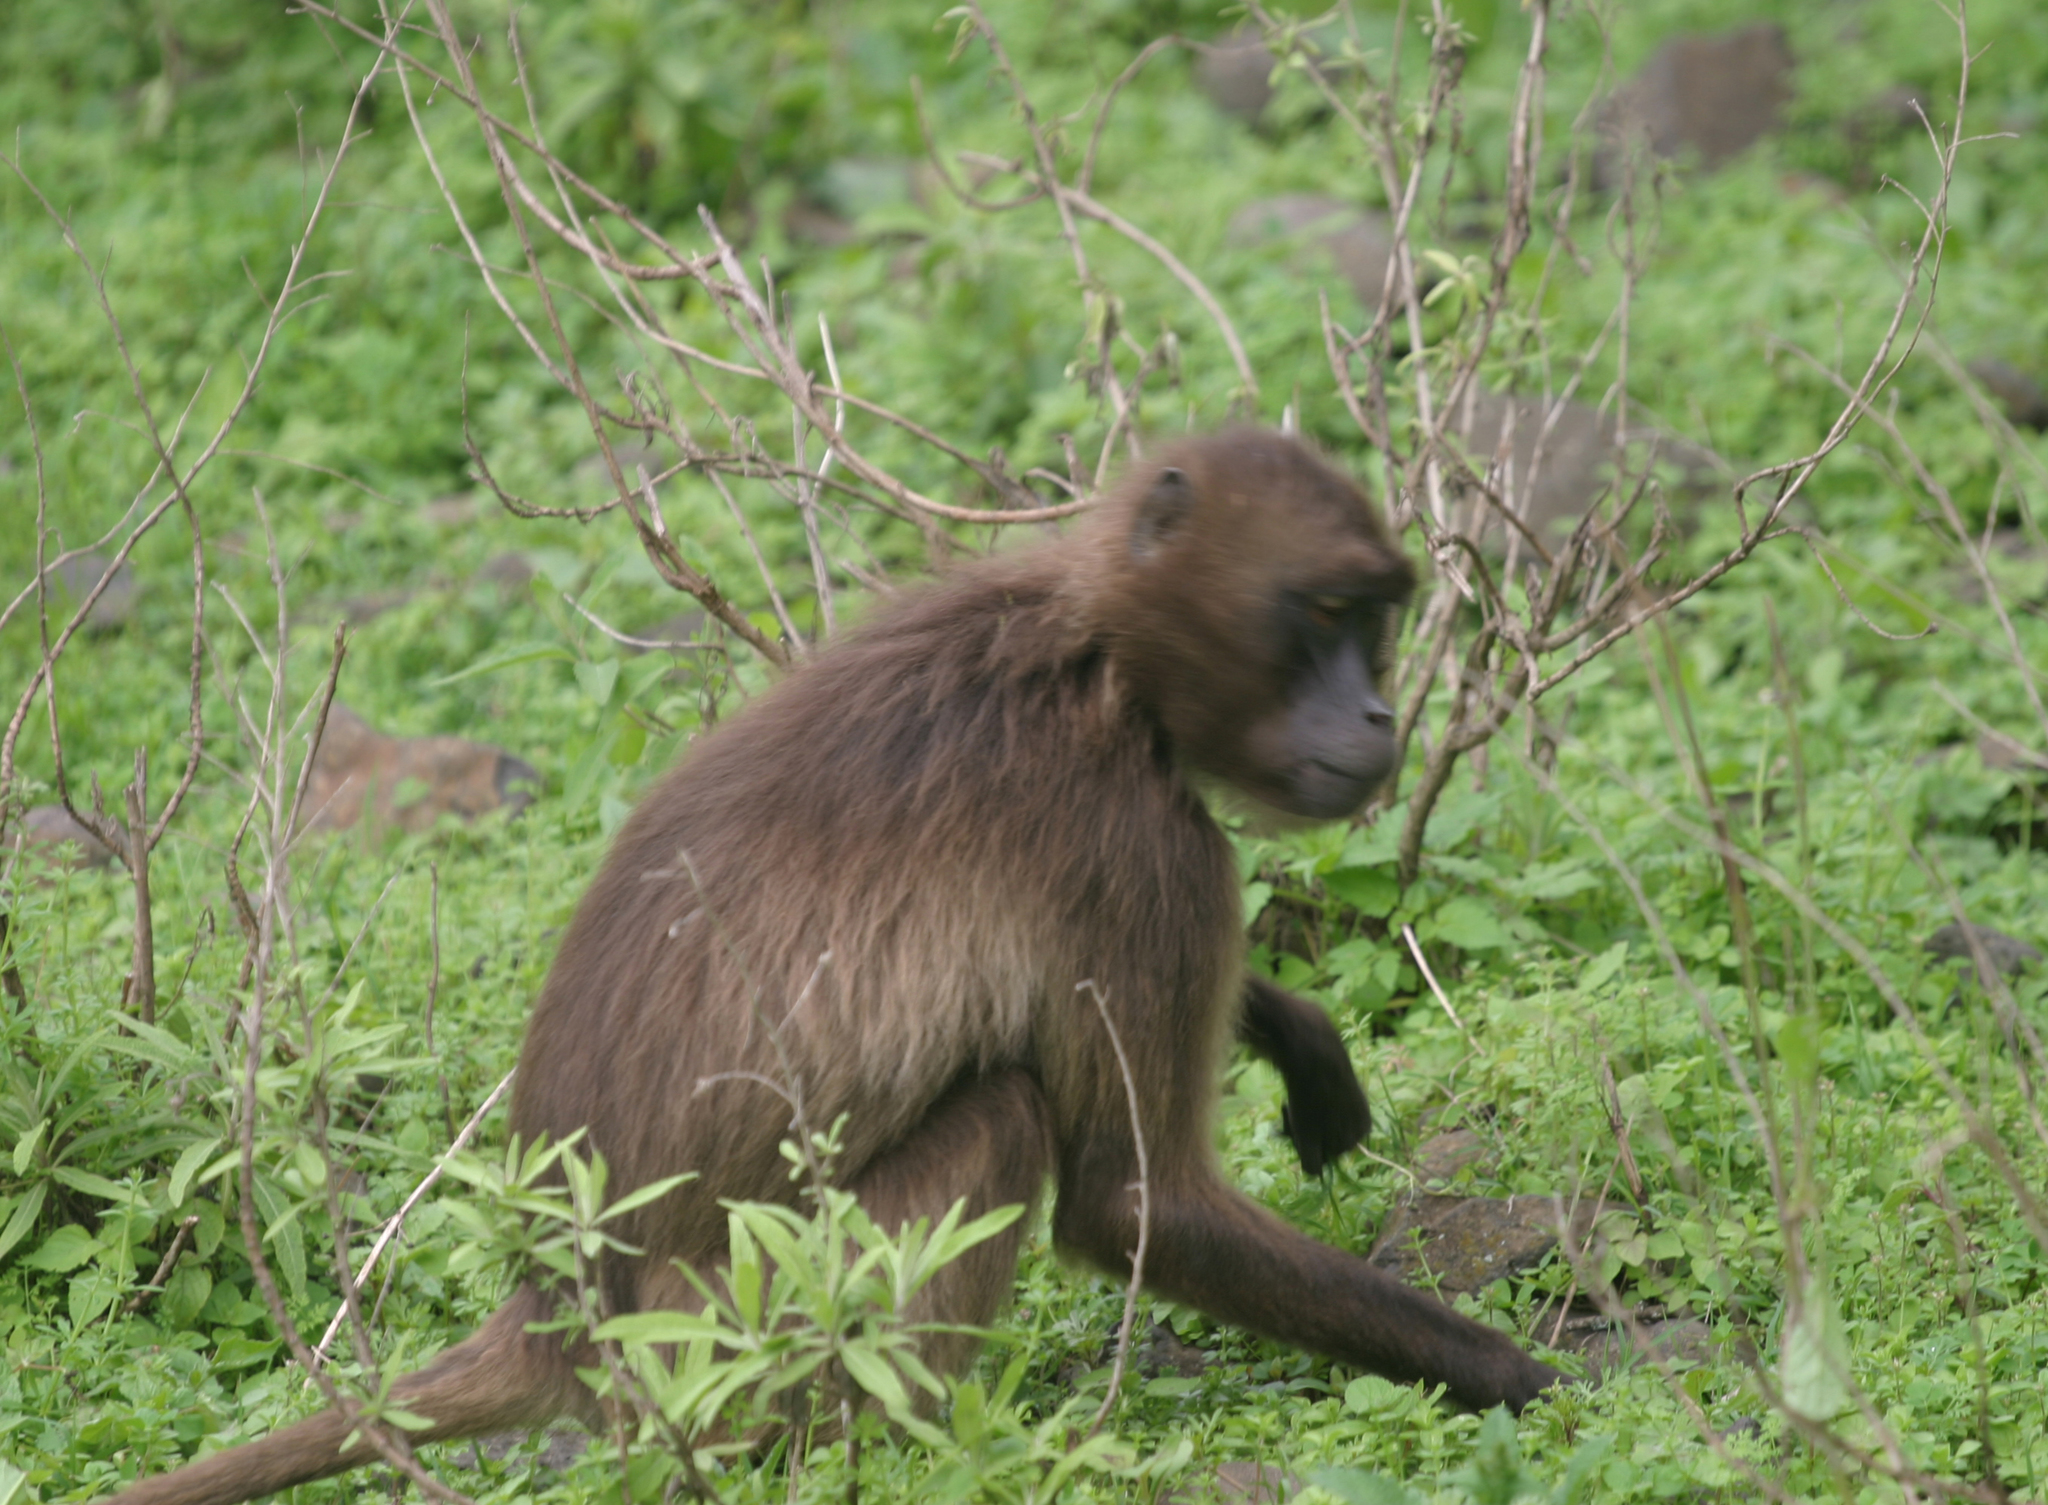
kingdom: Animalia
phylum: Chordata
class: Mammalia
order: Primates
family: Cercopithecidae
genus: Theropithecus
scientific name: Theropithecus gelada
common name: Gelada
